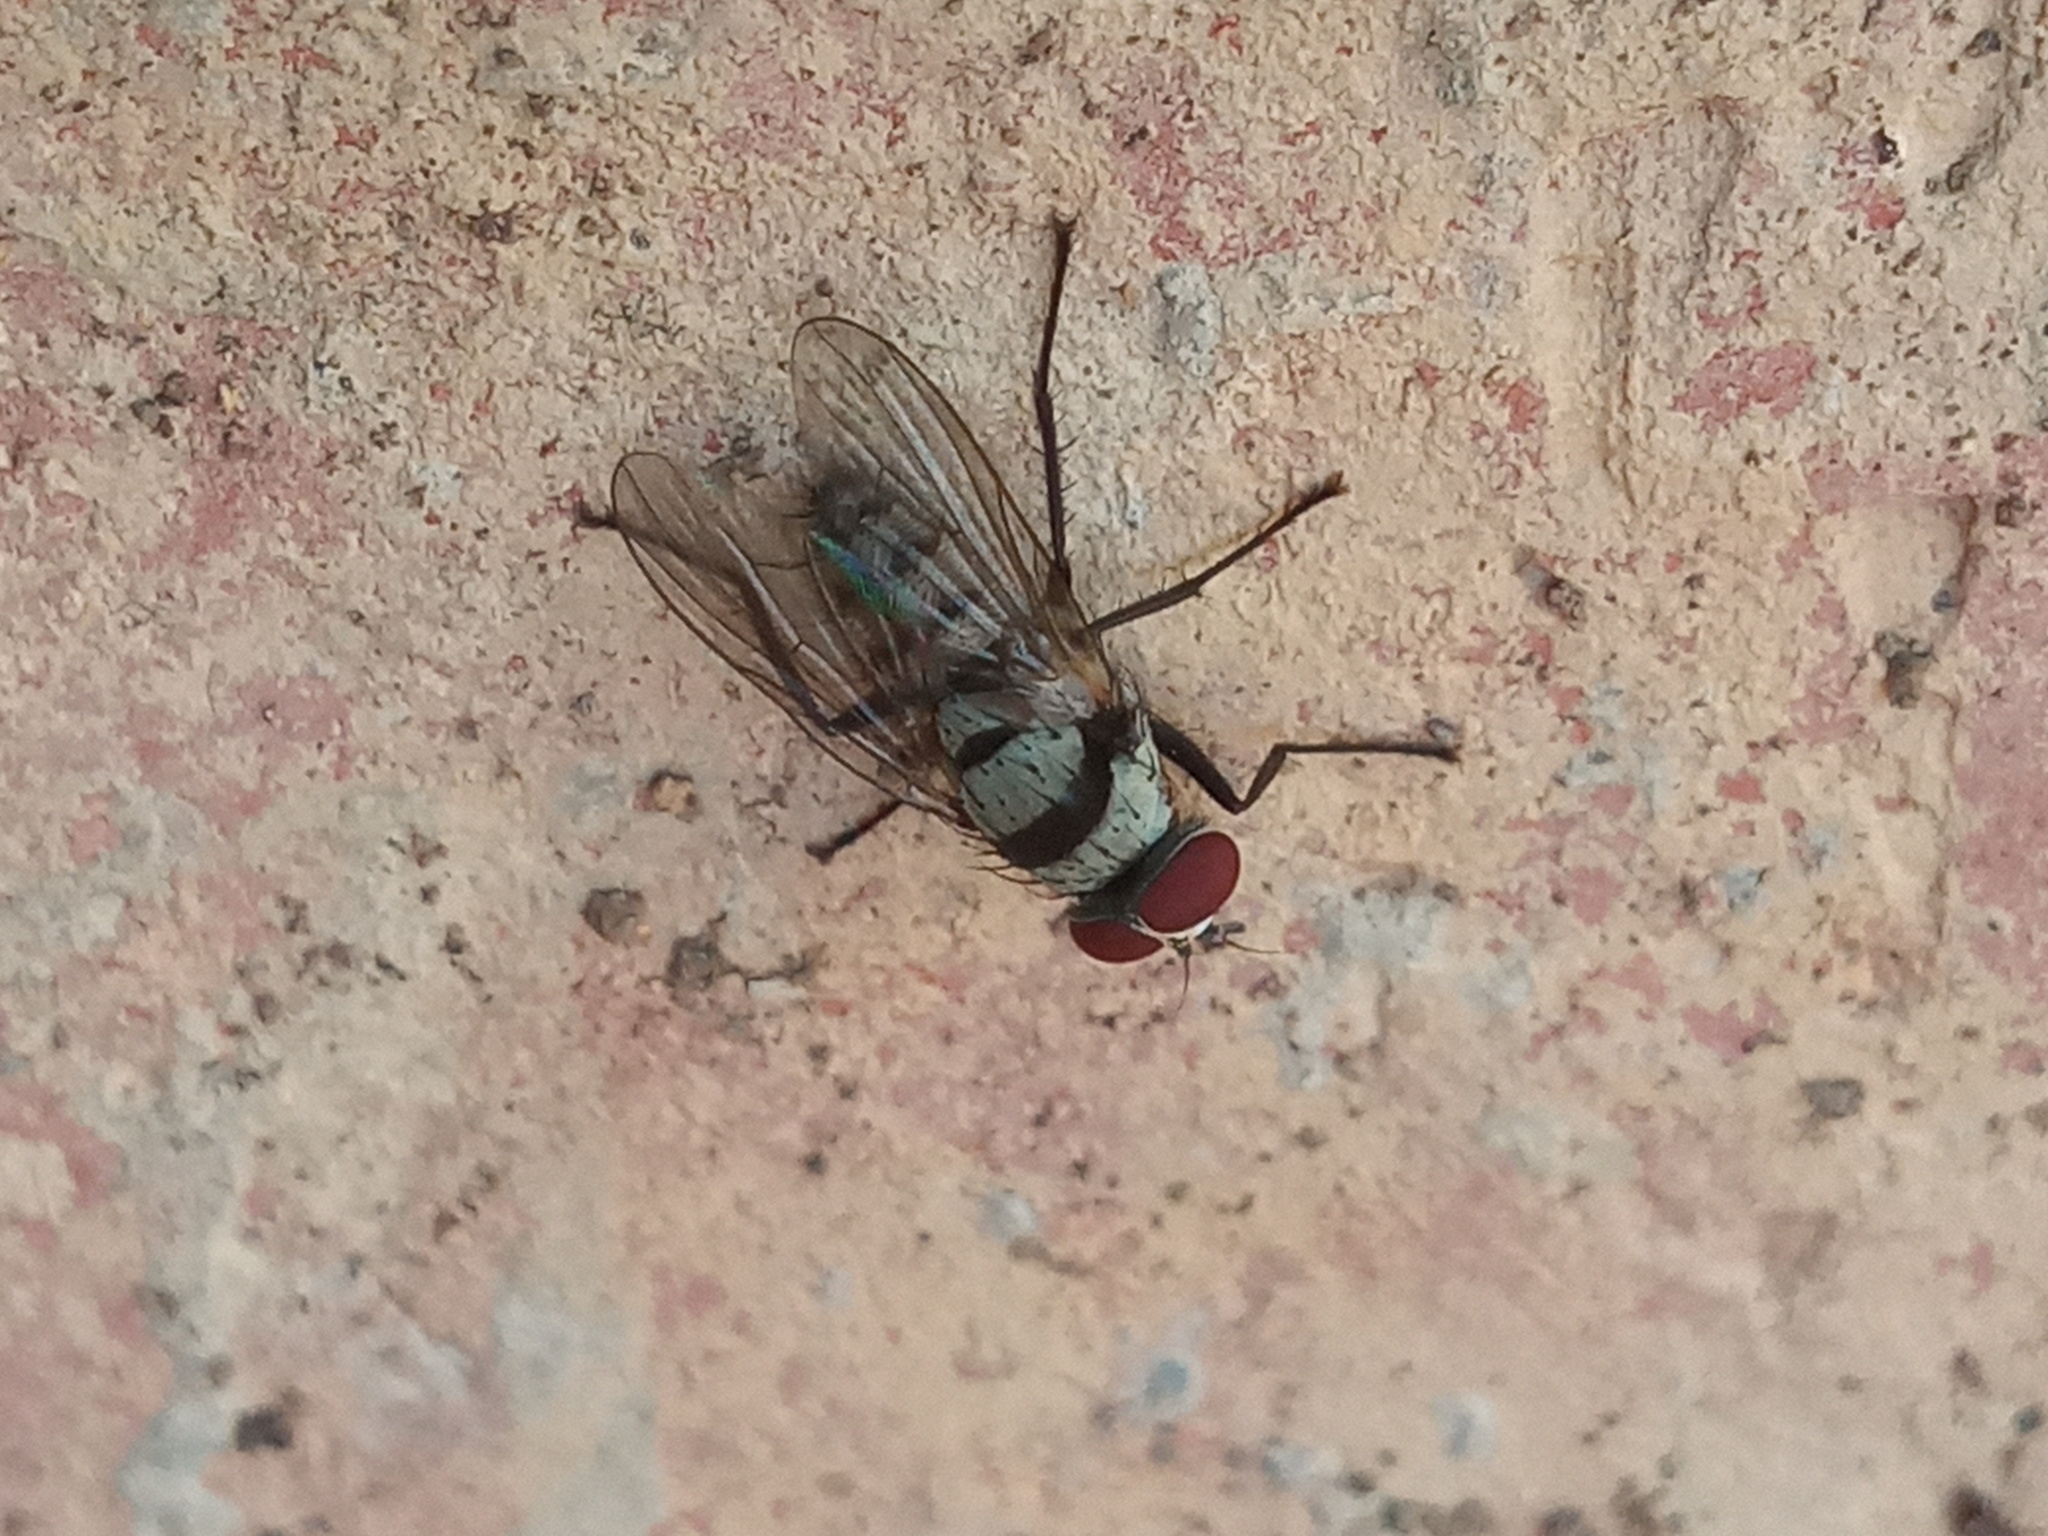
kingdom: Animalia
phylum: Arthropoda
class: Insecta
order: Diptera
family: Anthomyiidae
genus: Anthomyia
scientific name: Anthomyia illocata
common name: Fly
